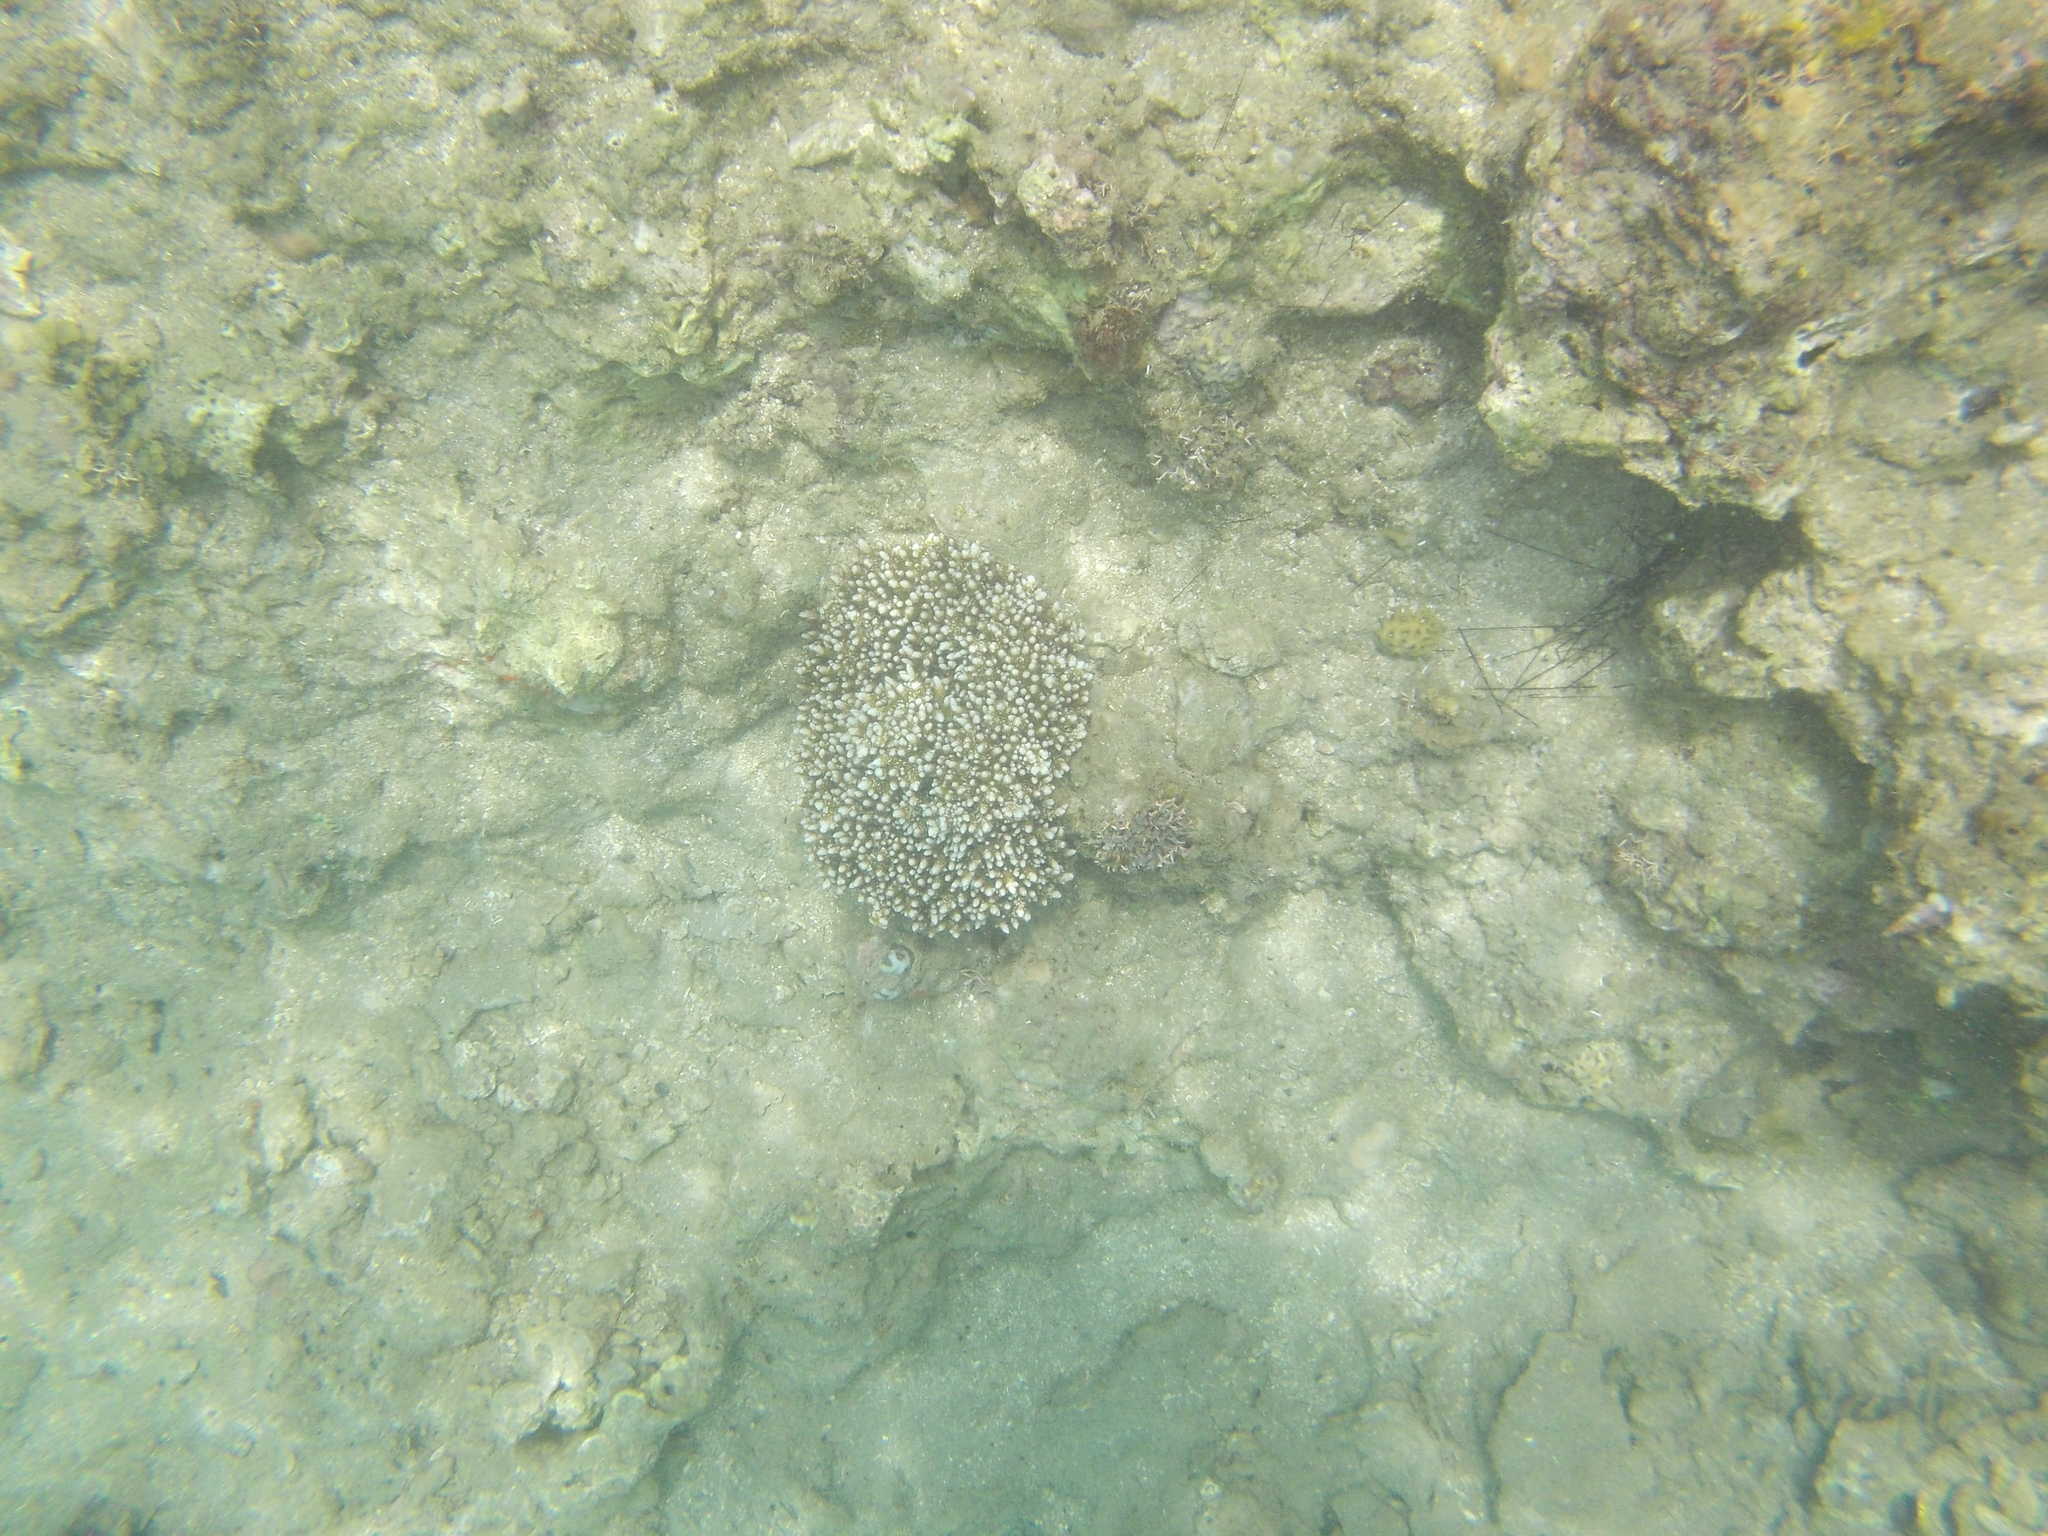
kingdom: Animalia
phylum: Cnidaria
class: Anthozoa
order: Actiniaria
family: Aliciidae
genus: Phyllodiscus
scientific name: Phyllodiscus semoni
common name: Night anemone
